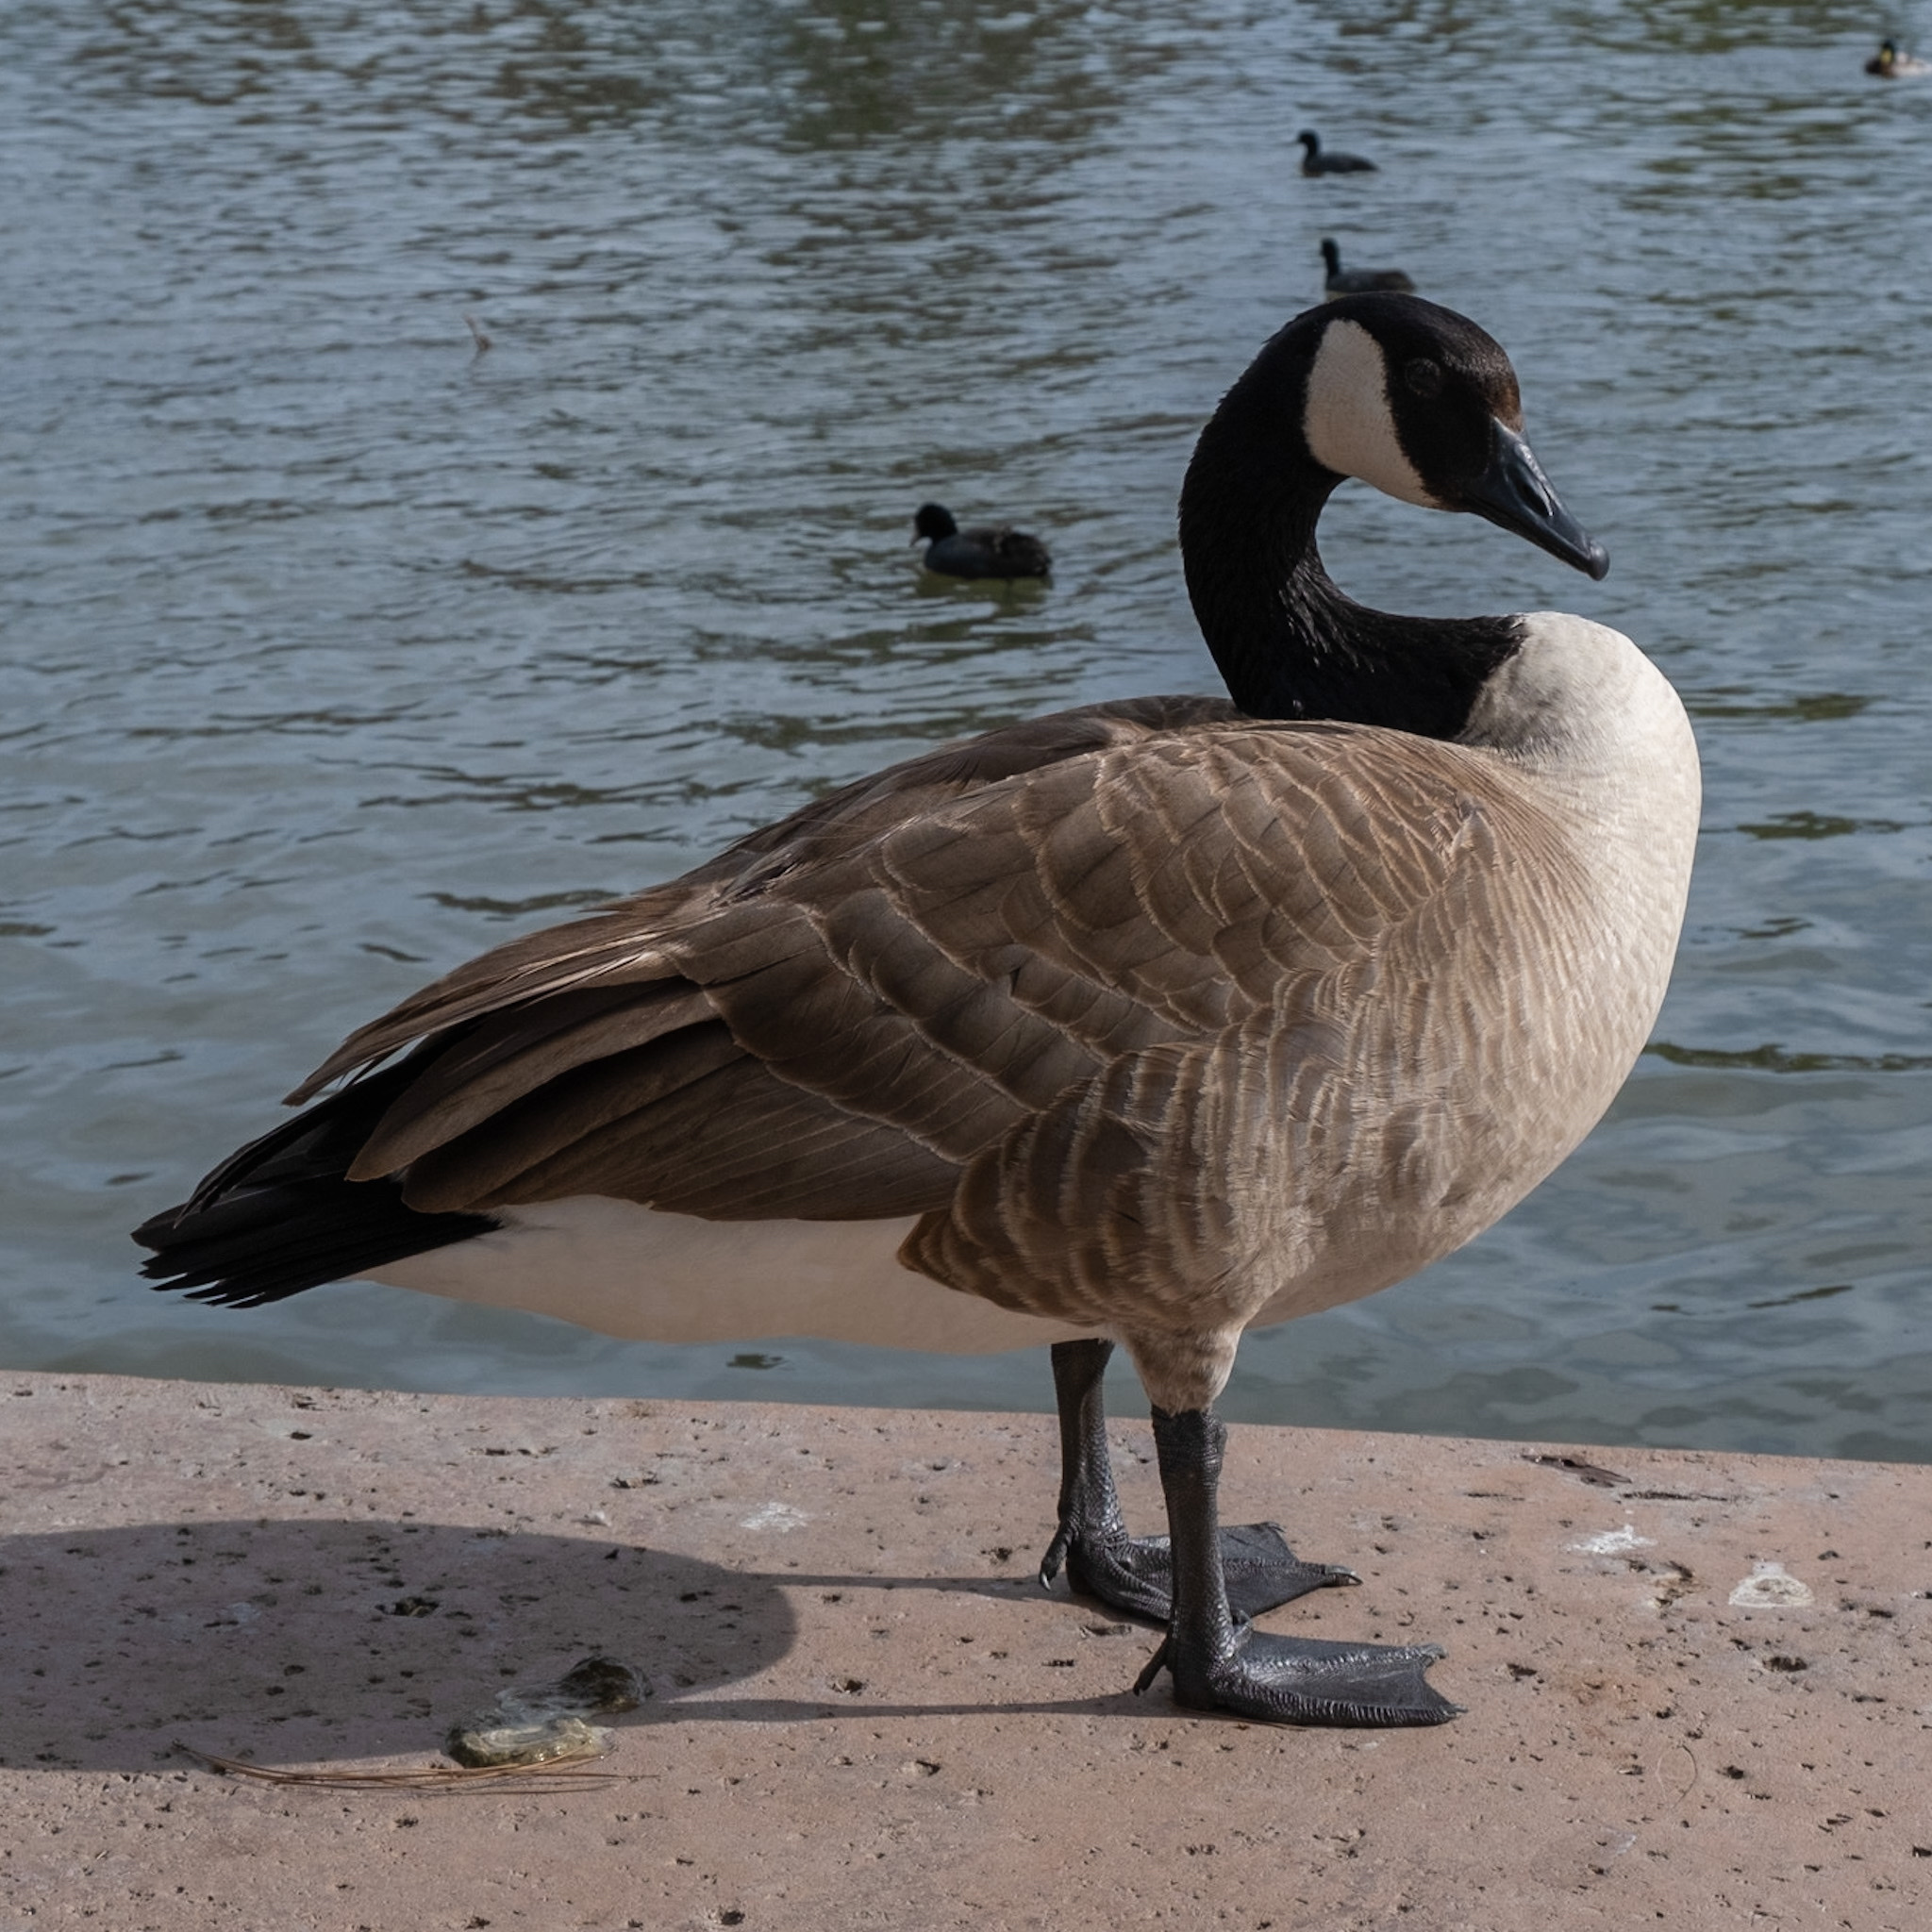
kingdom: Animalia
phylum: Chordata
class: Aves
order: Anseriformes
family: Anatidae
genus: Branta
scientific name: Branta canadensis
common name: Canada goose
